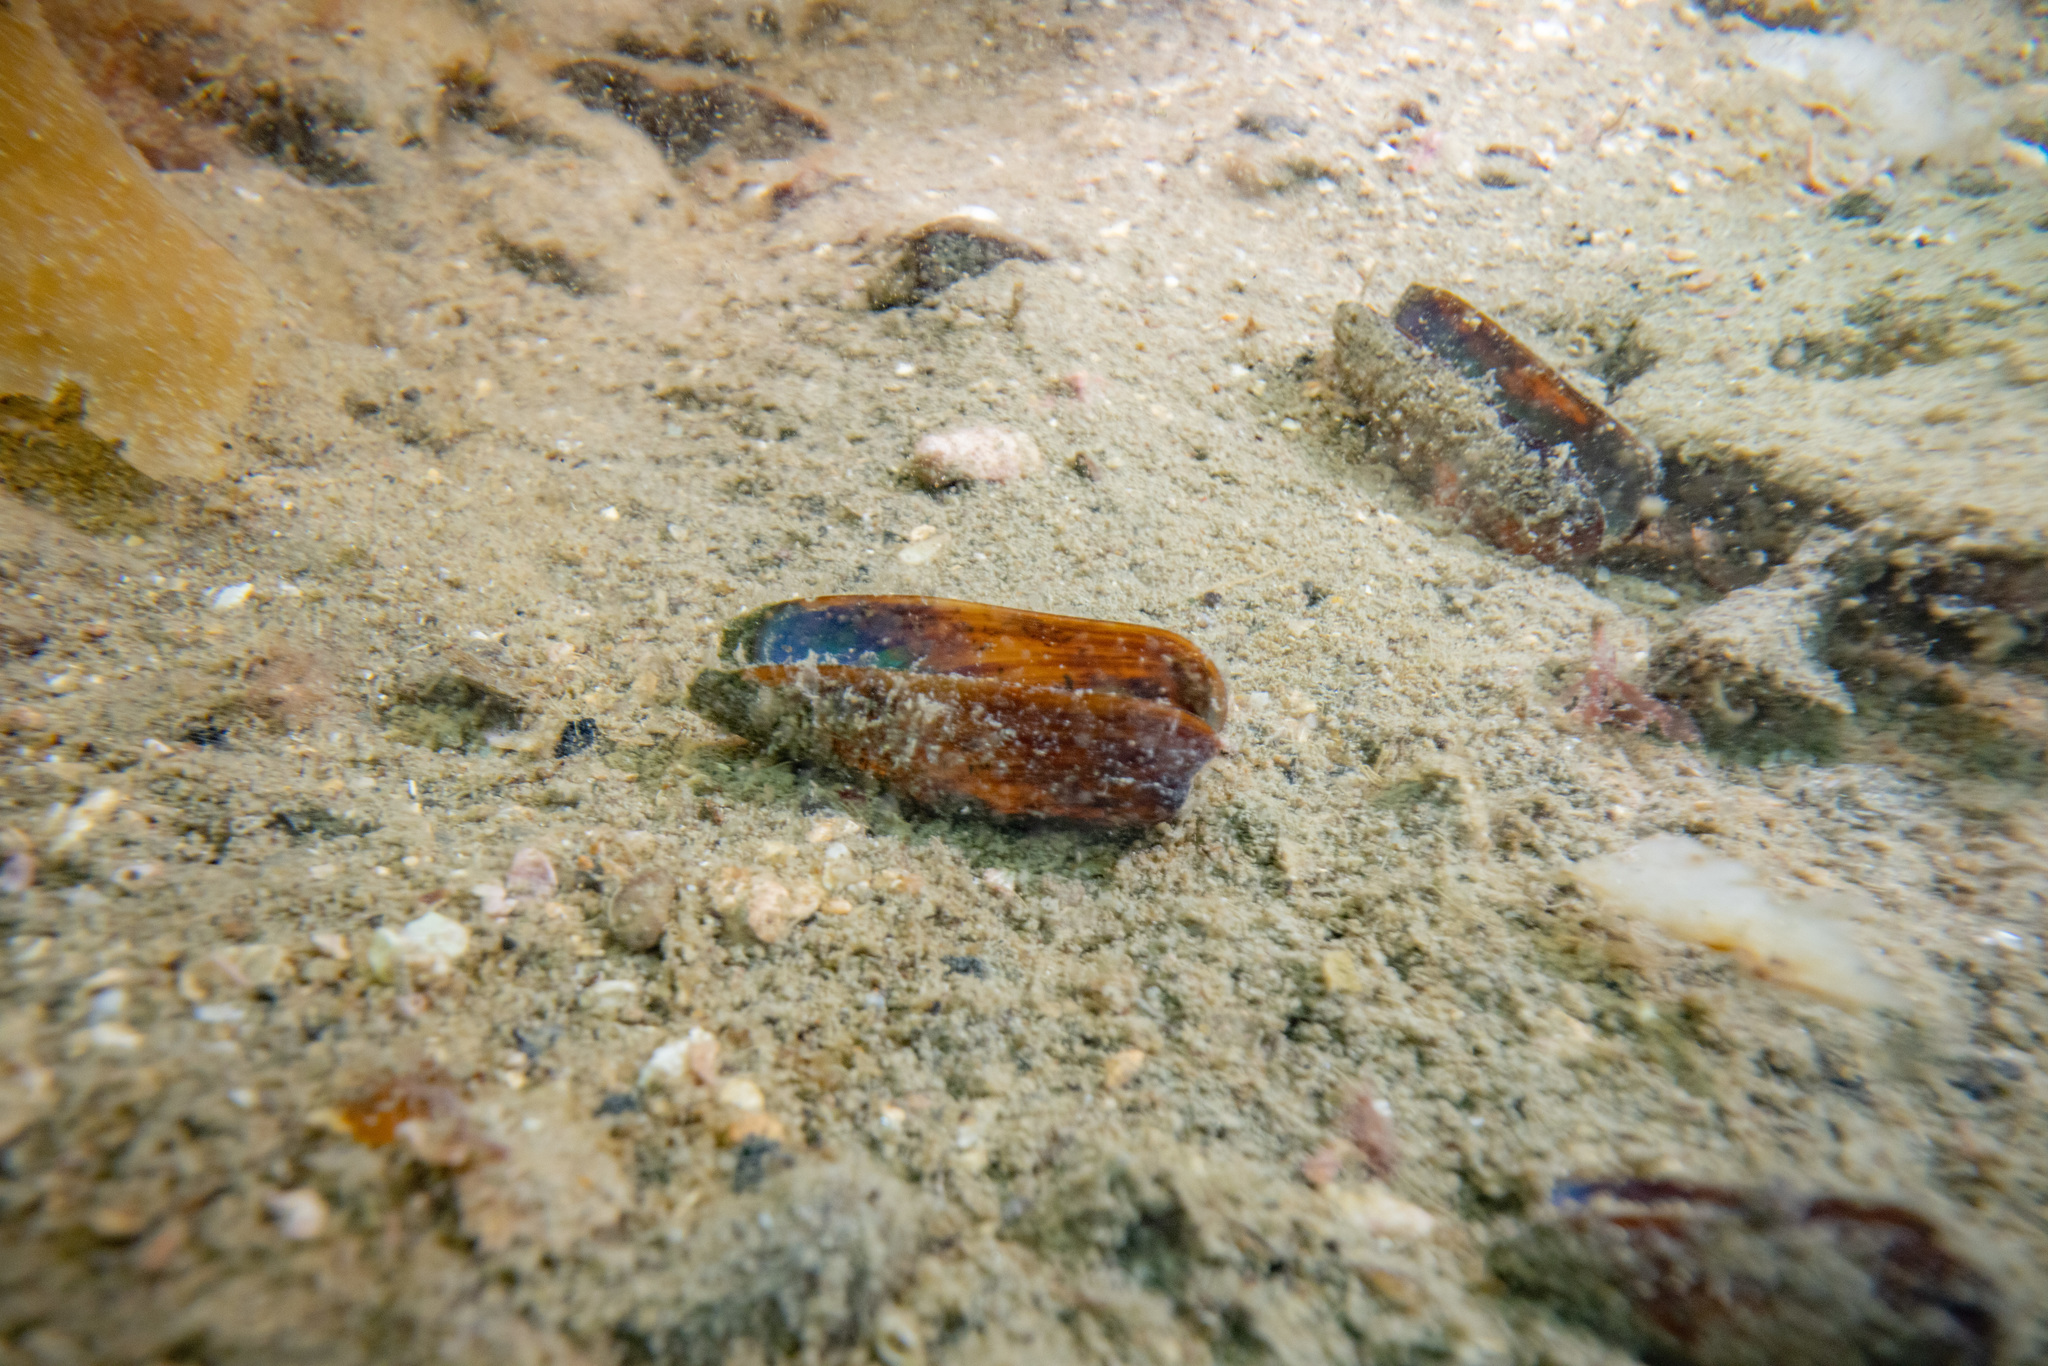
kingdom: Animalia
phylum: Mollusca
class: Bivalvia
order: Mytilida
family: Mytilidae
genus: Zelithophaga
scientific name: Zelithophaga truncata
